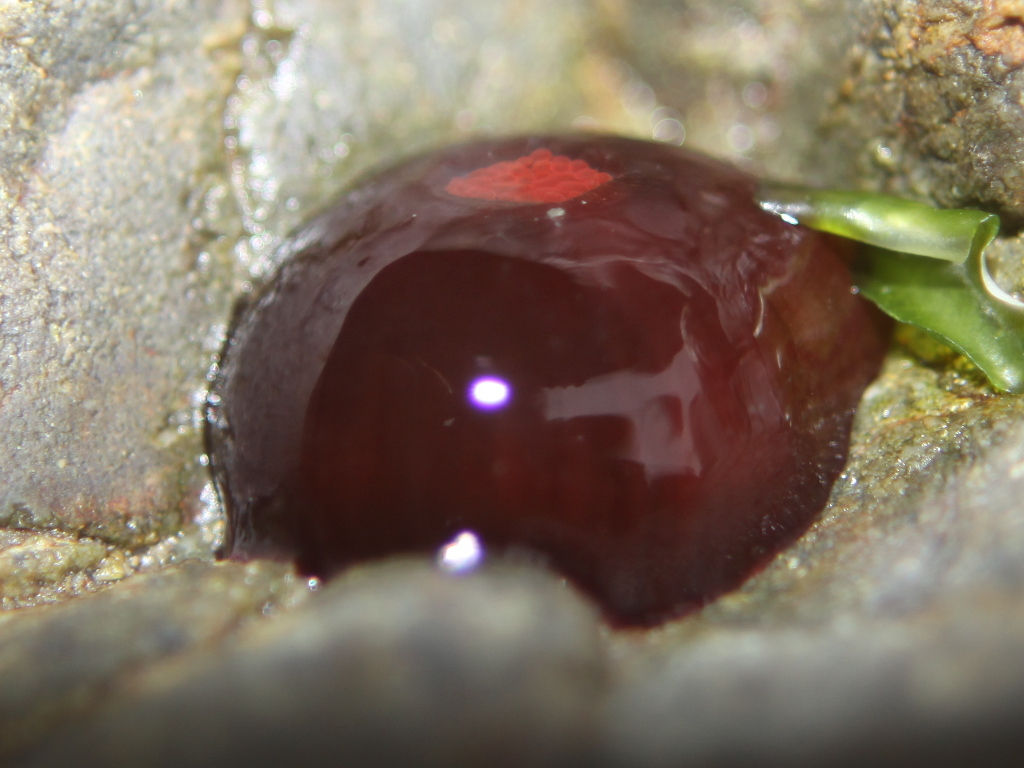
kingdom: Animalia
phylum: Cnidaria
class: Anthozoa
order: Actiniaria
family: Actiniidae
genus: Actinia
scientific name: Actinia tenebrosa
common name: Waratah anemone
